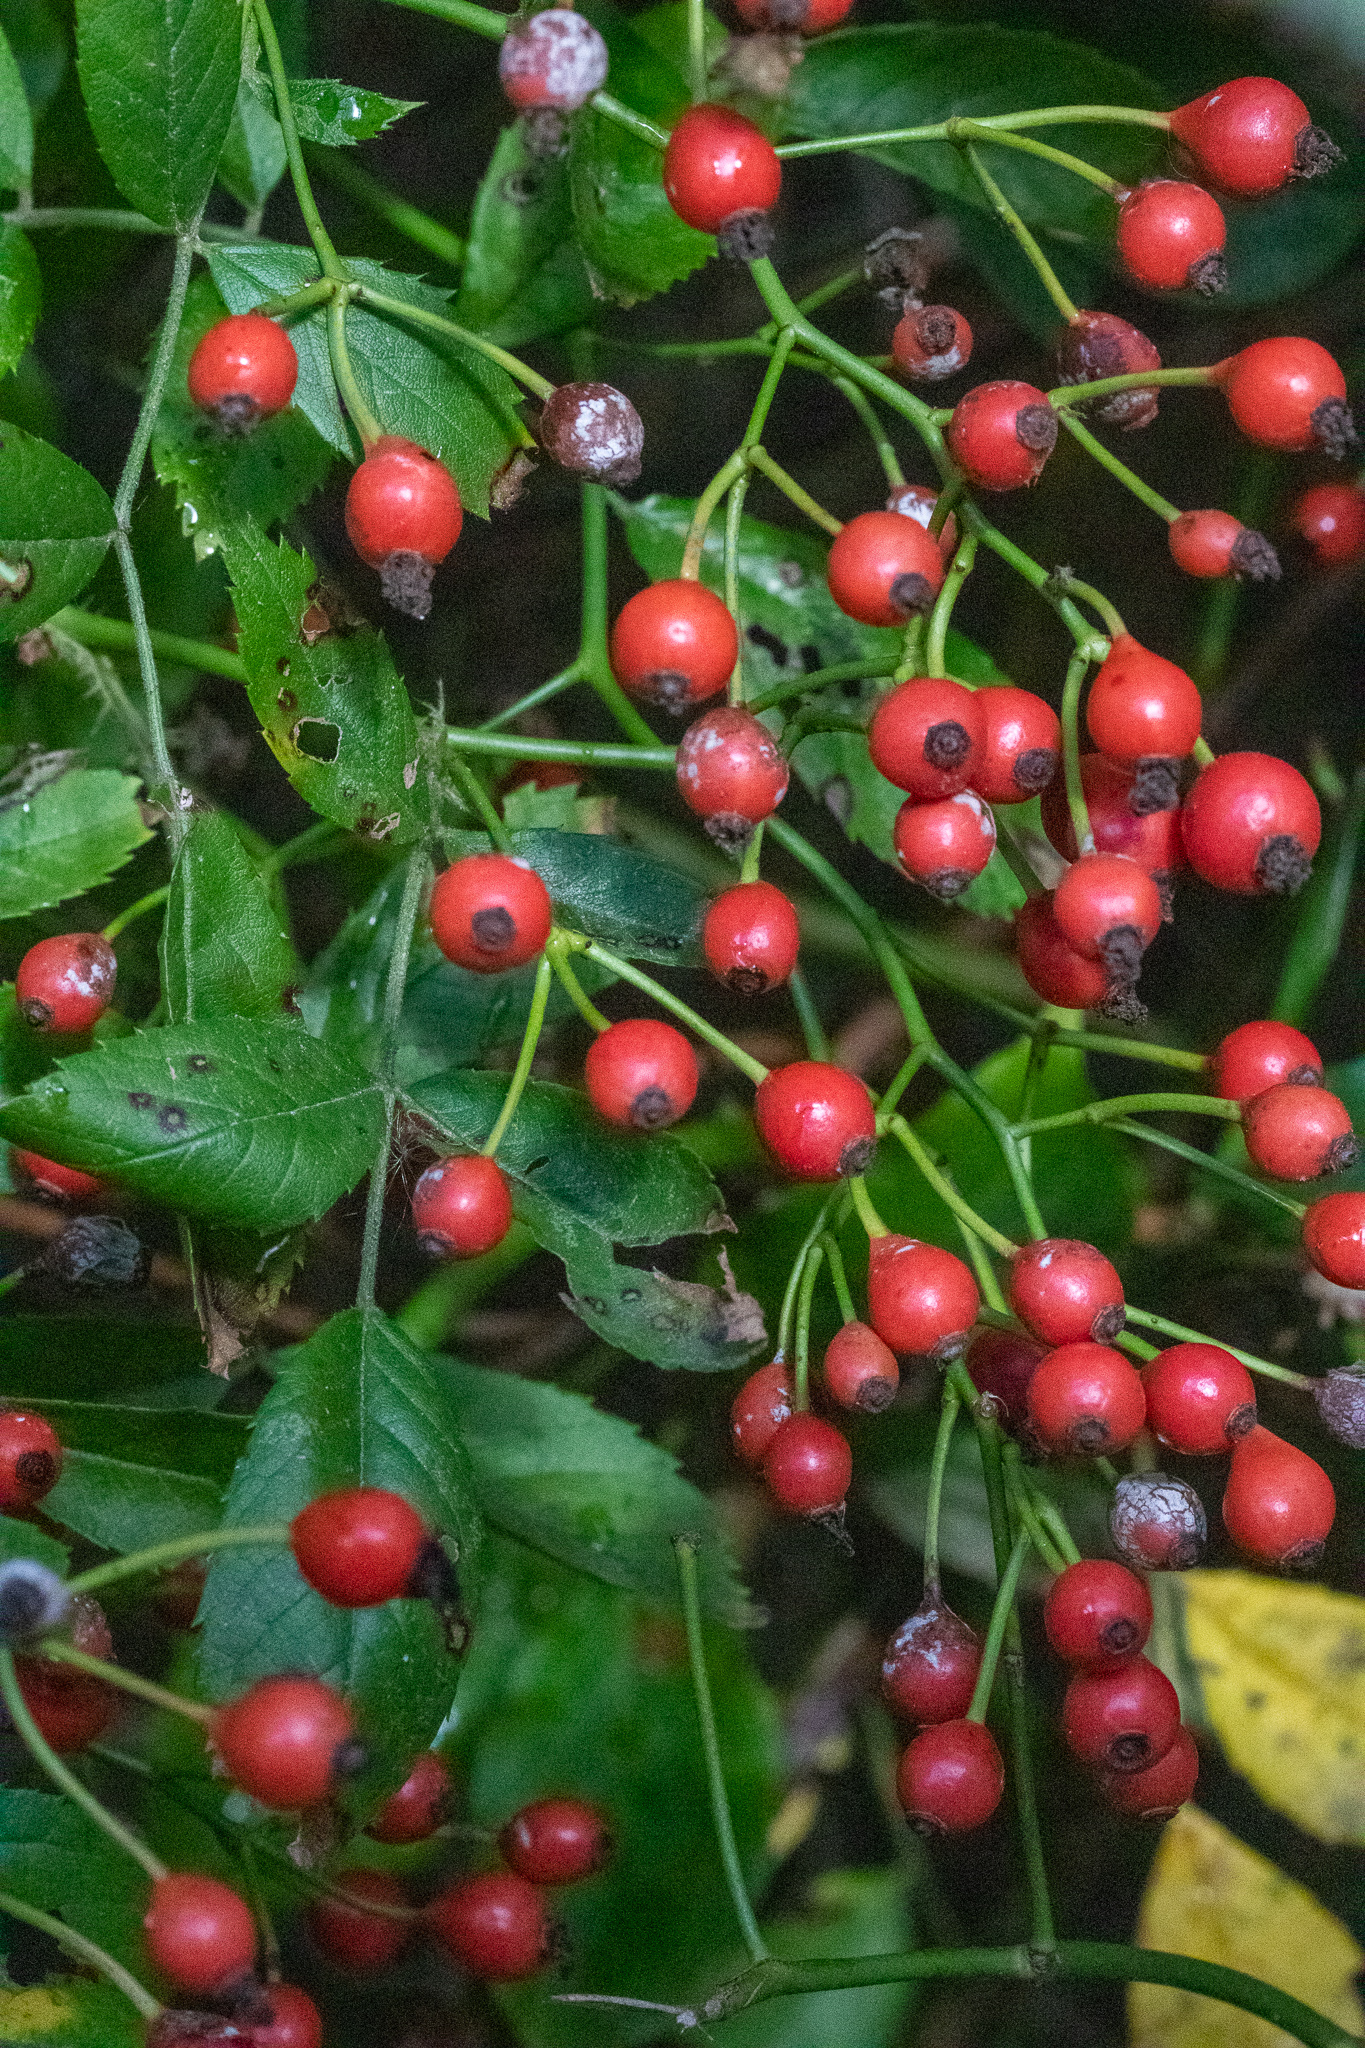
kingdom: Plantae
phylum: Tracheophyta
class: Magnoliopsida
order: Rosales
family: Rosaceae
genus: Rosa
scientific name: Rosa multiflora
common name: Multiflora rose
